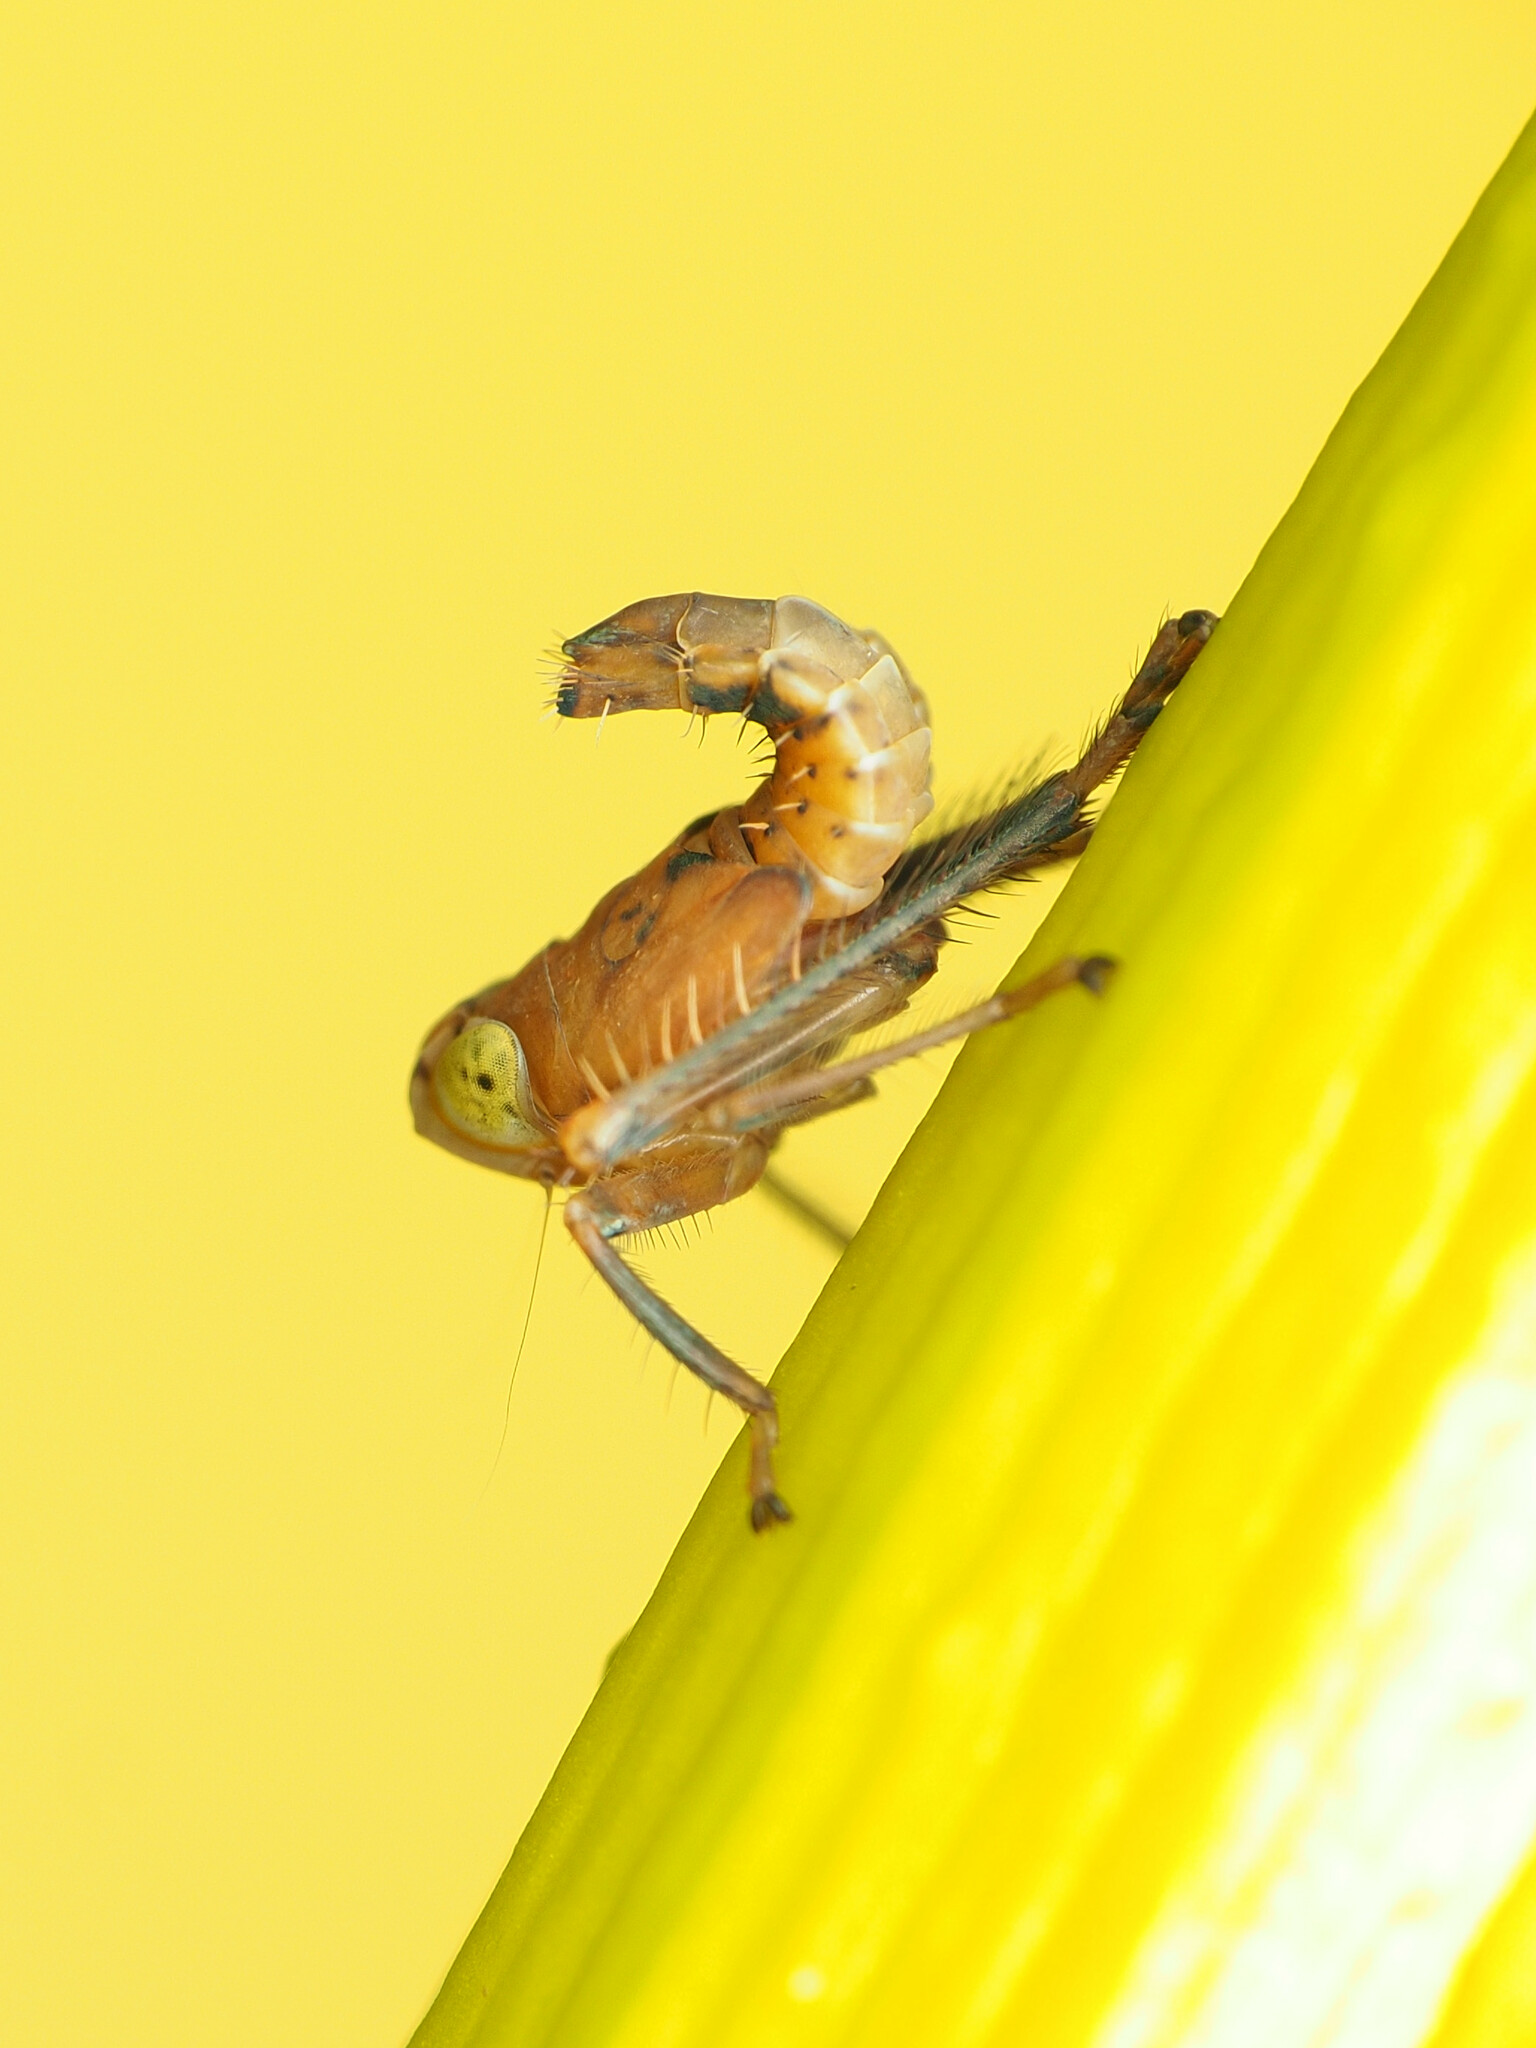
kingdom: Animalia
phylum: Arthropoda
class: Insecta
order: Hemiptera
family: Cicadellidae
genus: Jikradia
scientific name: Jikradia olitoria
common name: Coppery leafhopper
